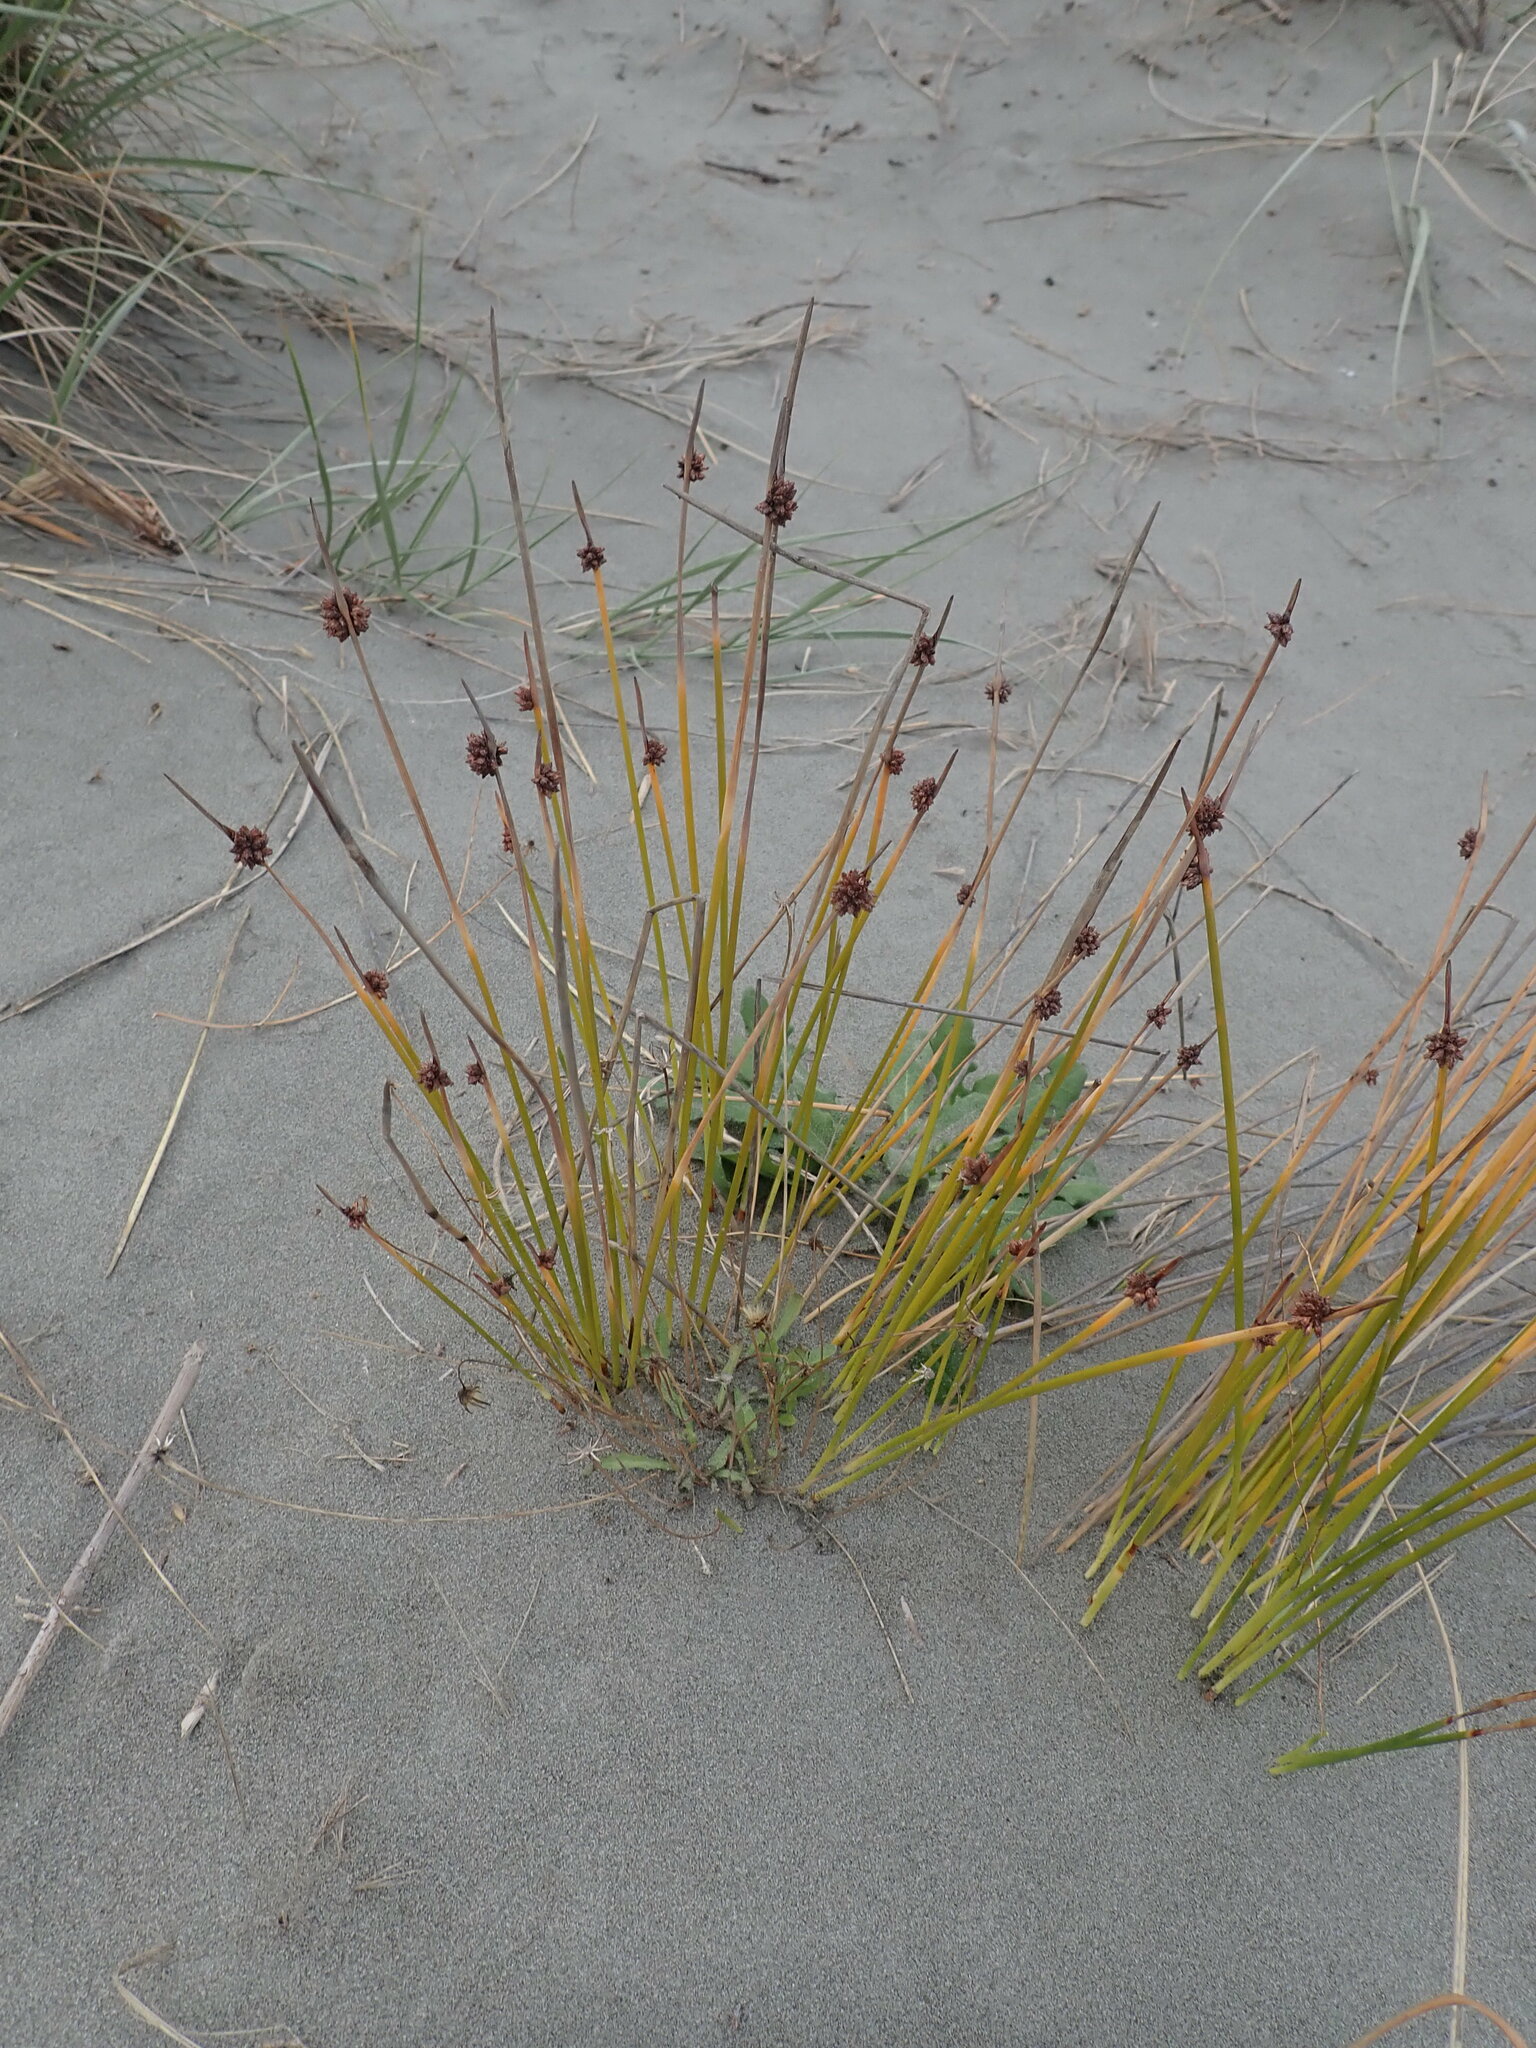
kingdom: Plantae
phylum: Tracheophyta
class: Liliopsida
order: Poales
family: Cyperaceae
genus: Ficinia
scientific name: Ficinia nodosa
